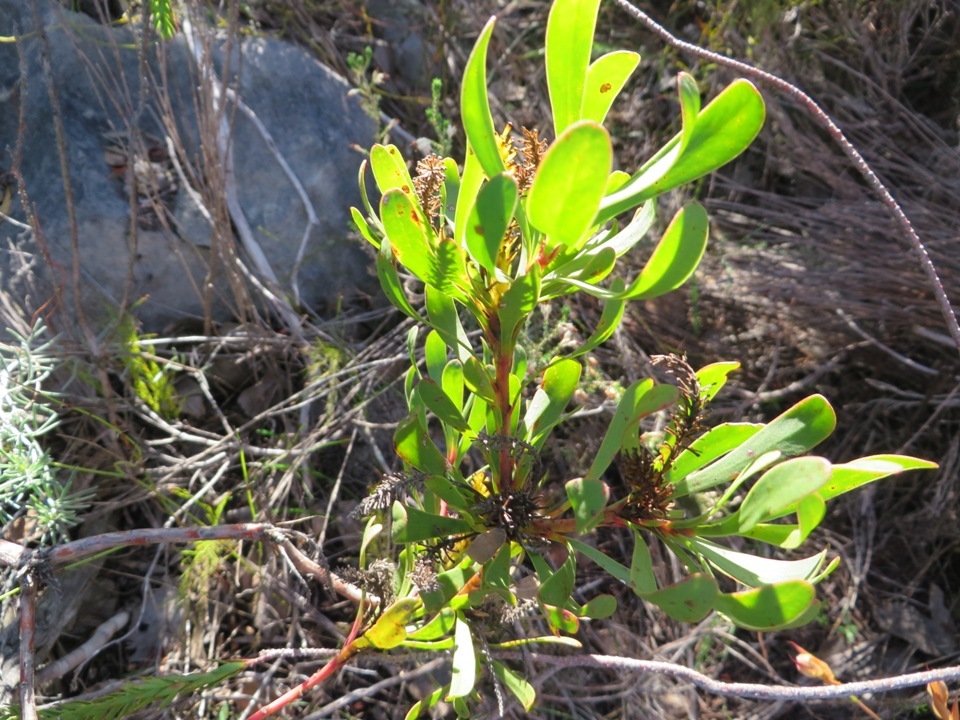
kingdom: Plantae
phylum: Tracheophyta
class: Magnoliopsida
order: Proteales
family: Proteaceae
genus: Aulax
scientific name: Aulax umbellata
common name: Broad-leaf featherbush
